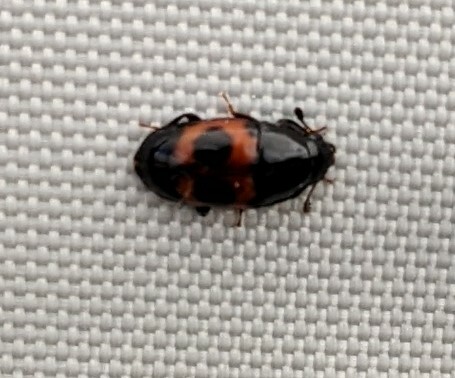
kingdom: Animalia
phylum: Arthropoda
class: Insecta
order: Coleoptera
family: Nitidulidae
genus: Glischrochilus
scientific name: Glischrochilus sanguinolentus
